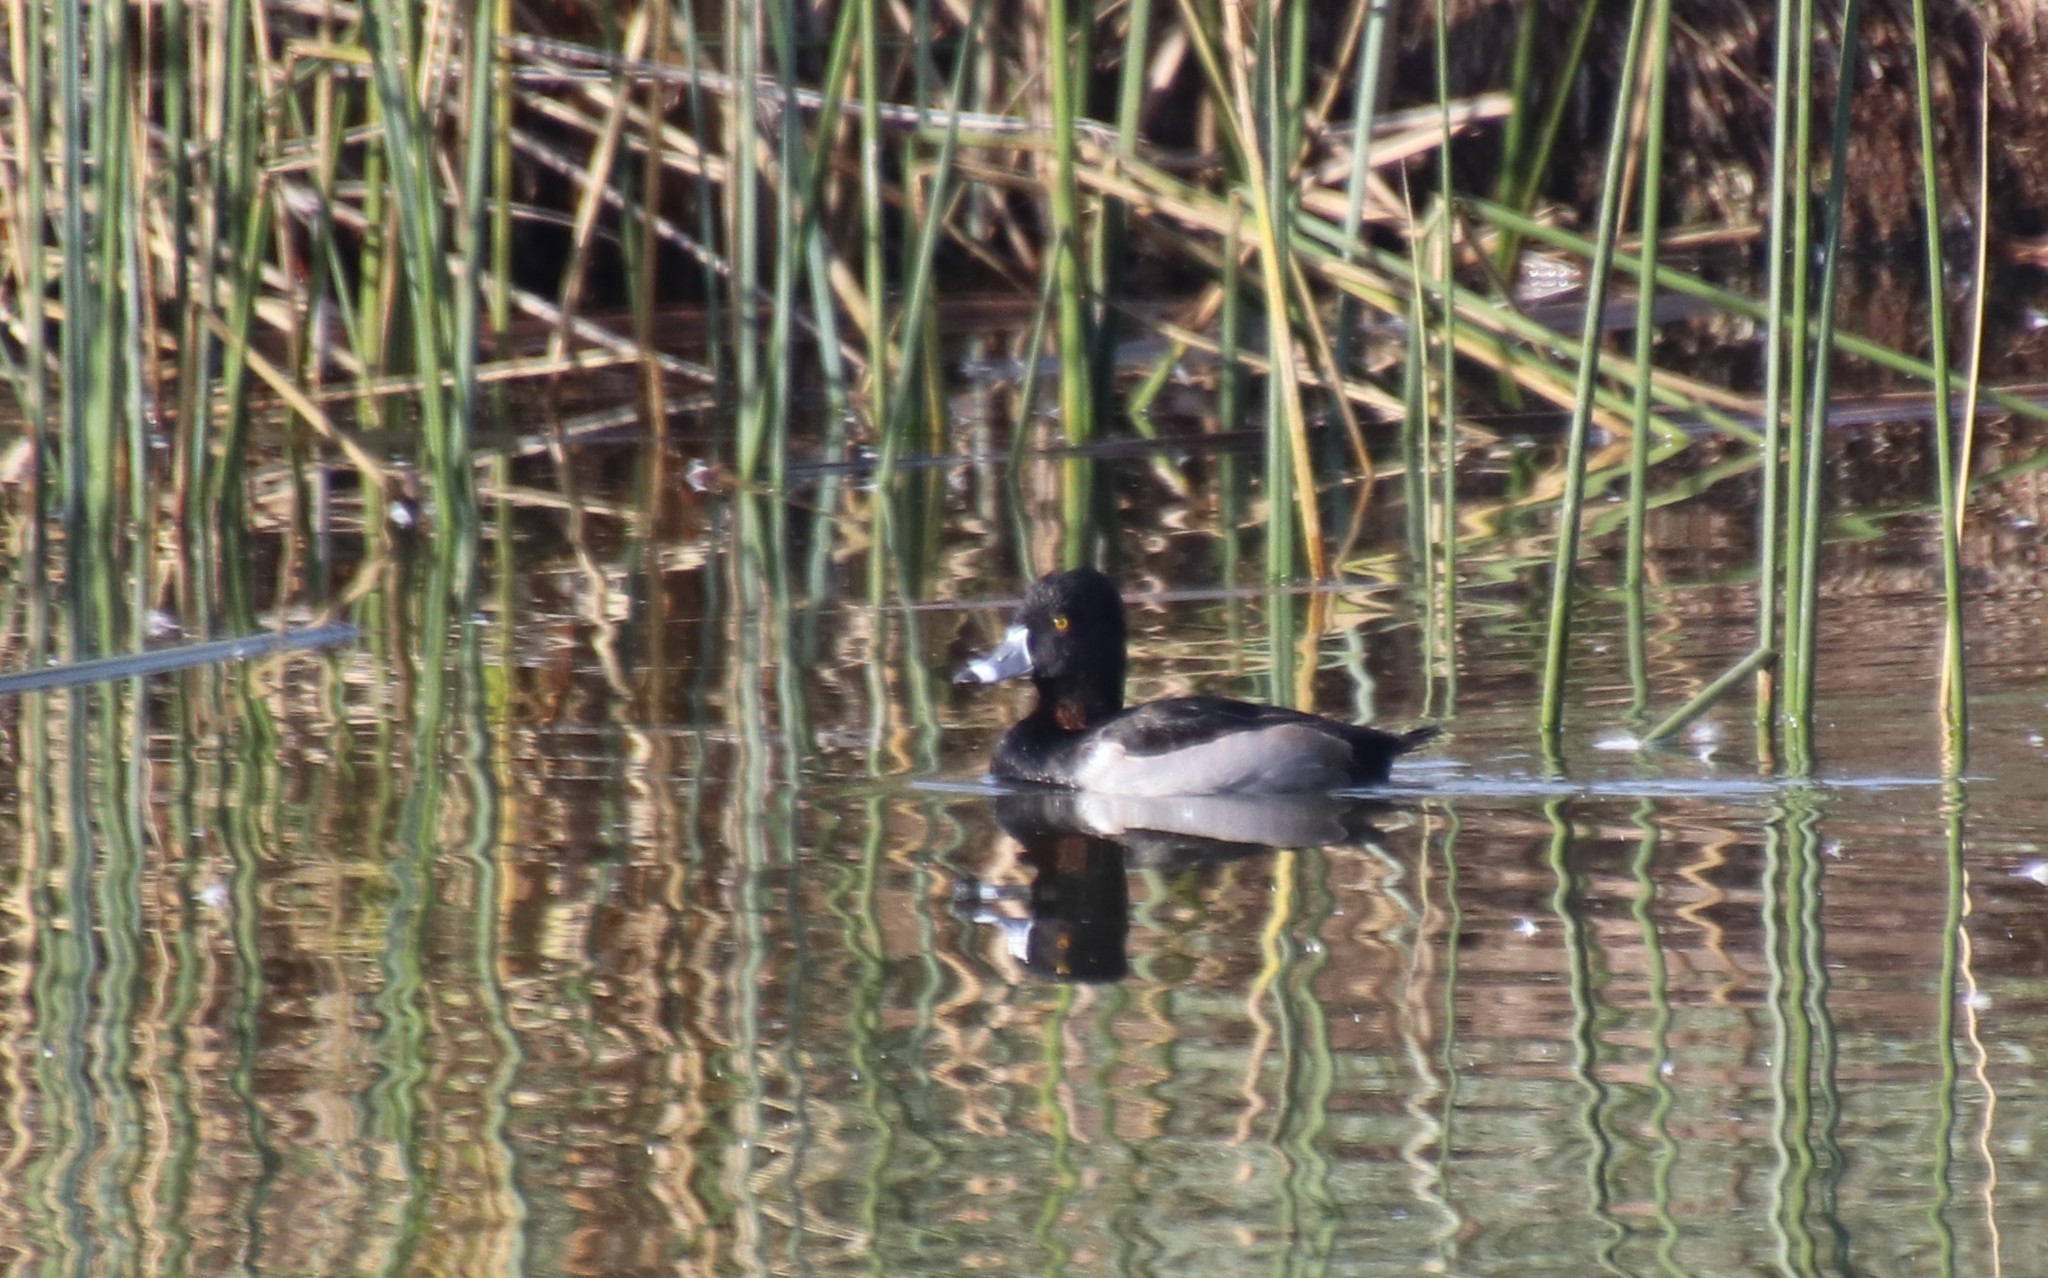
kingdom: Animalia
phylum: Chordata
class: Aves
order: Anseriformes
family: Anatidae
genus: Aythya
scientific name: Aythya collaris
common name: Ring-necked duck
